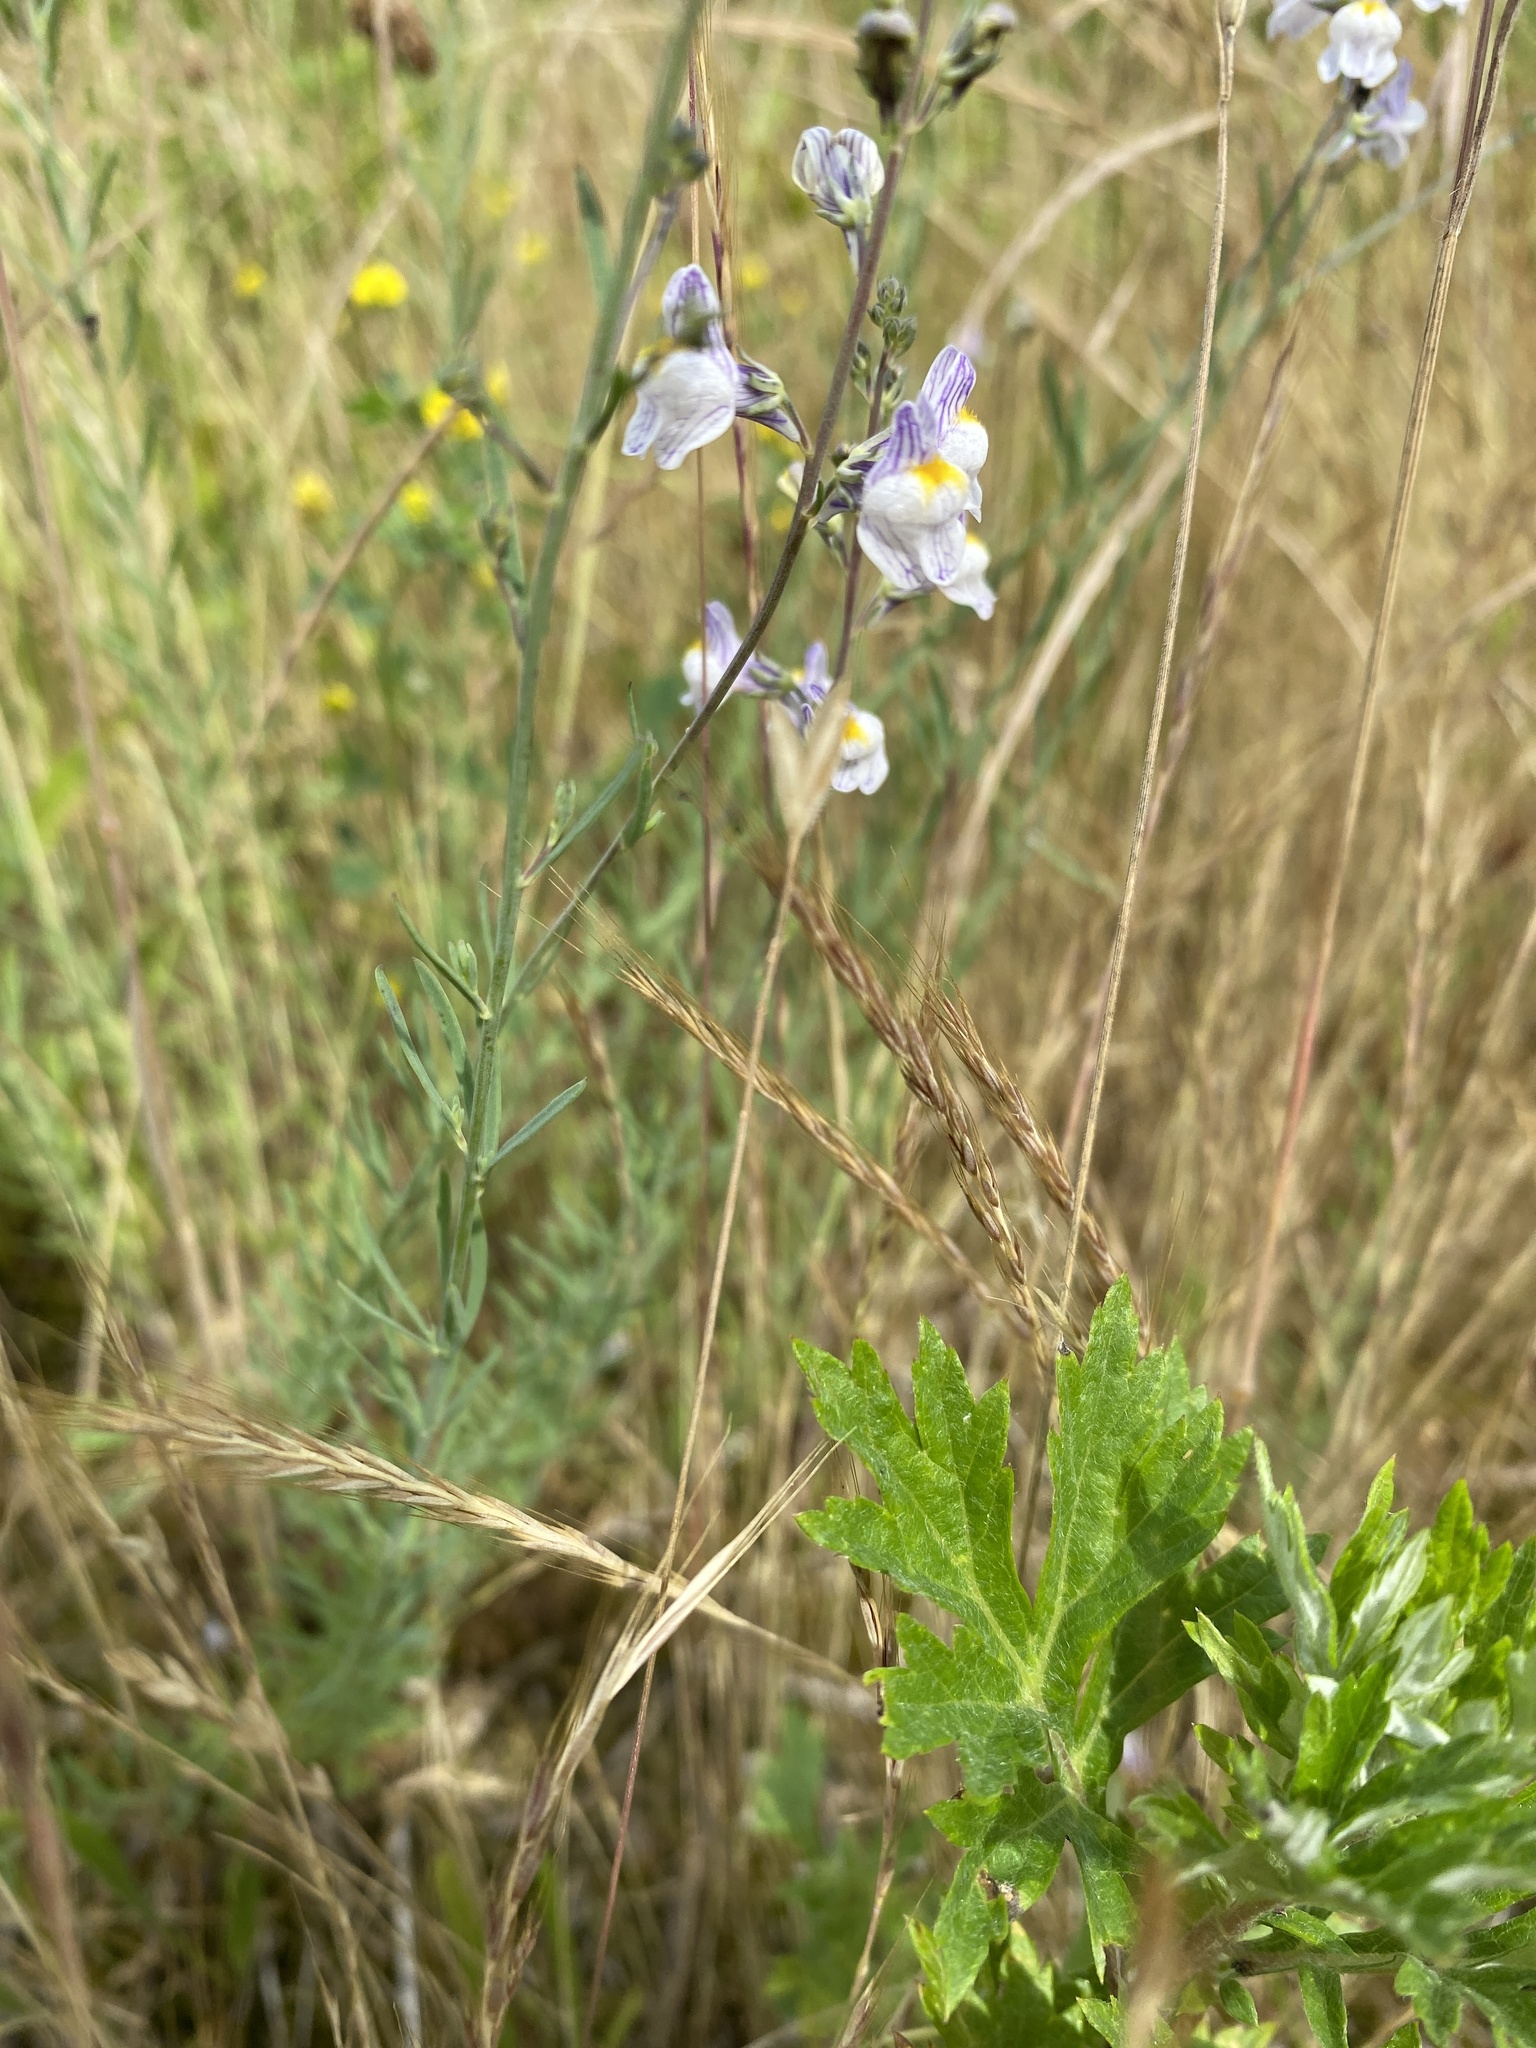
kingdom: Plantae
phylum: Tracheophyta
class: Magnoliopsida
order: Lamiales
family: Plantaginaceae
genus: Linaria
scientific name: Linaria repens
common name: Pale toadflax
